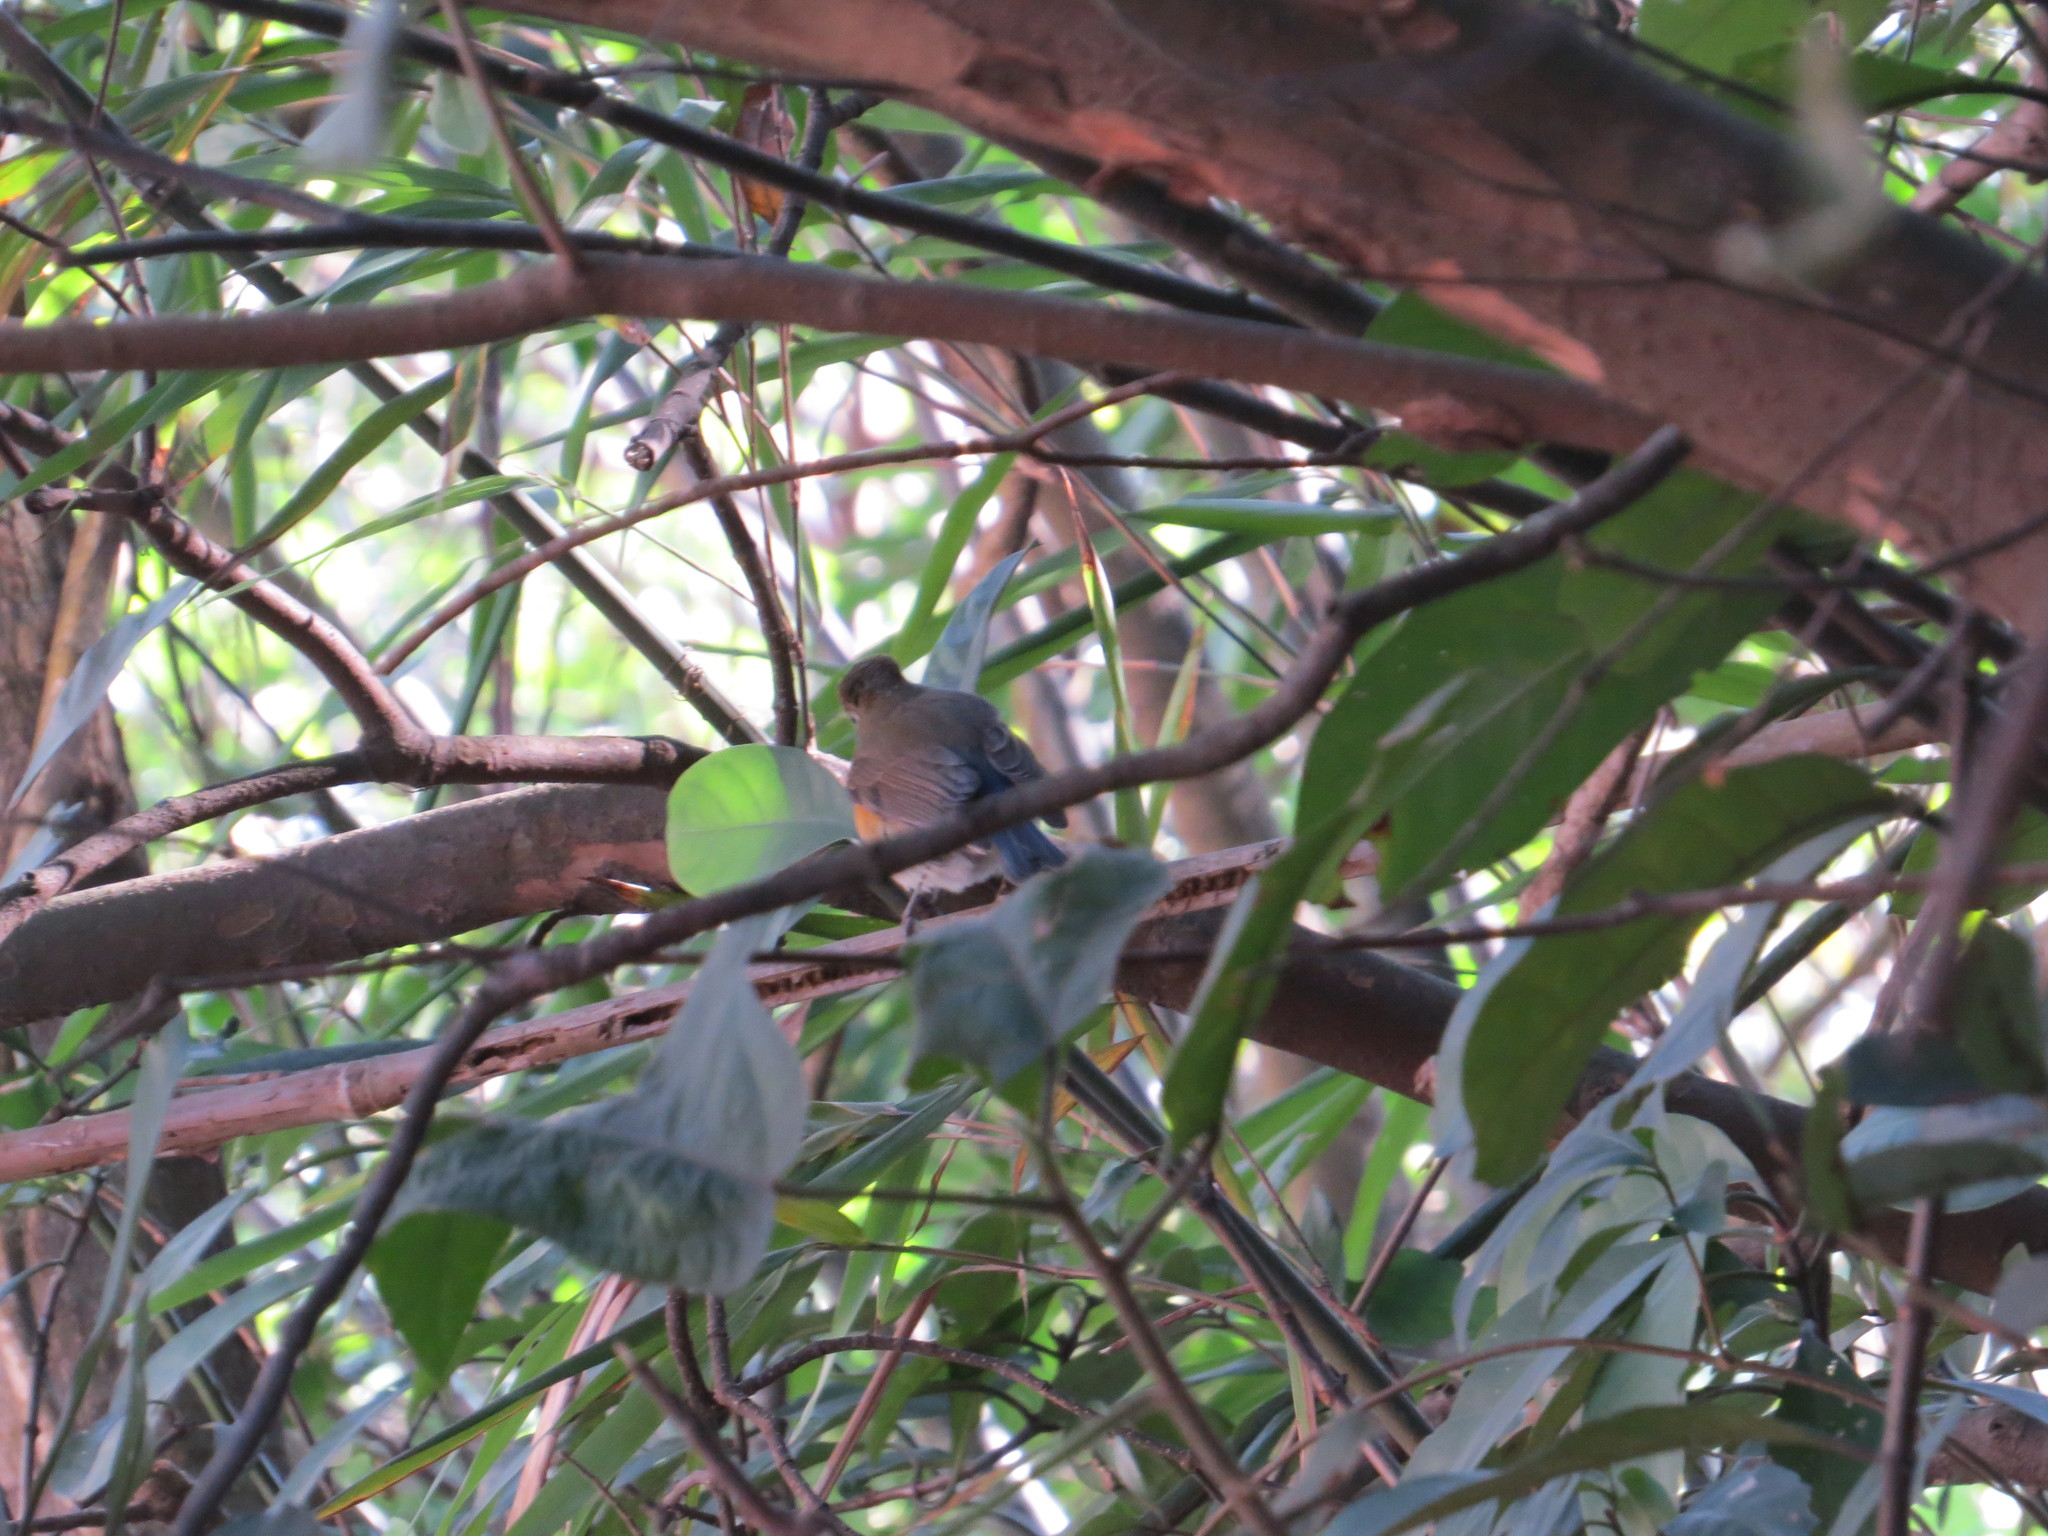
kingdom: Animalia
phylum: Chordata
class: Aves
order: Passeriformes
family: Muscicapidae
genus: Tarsiger
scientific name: Tarsiger cyanurus
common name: Red-flanked bluetail
